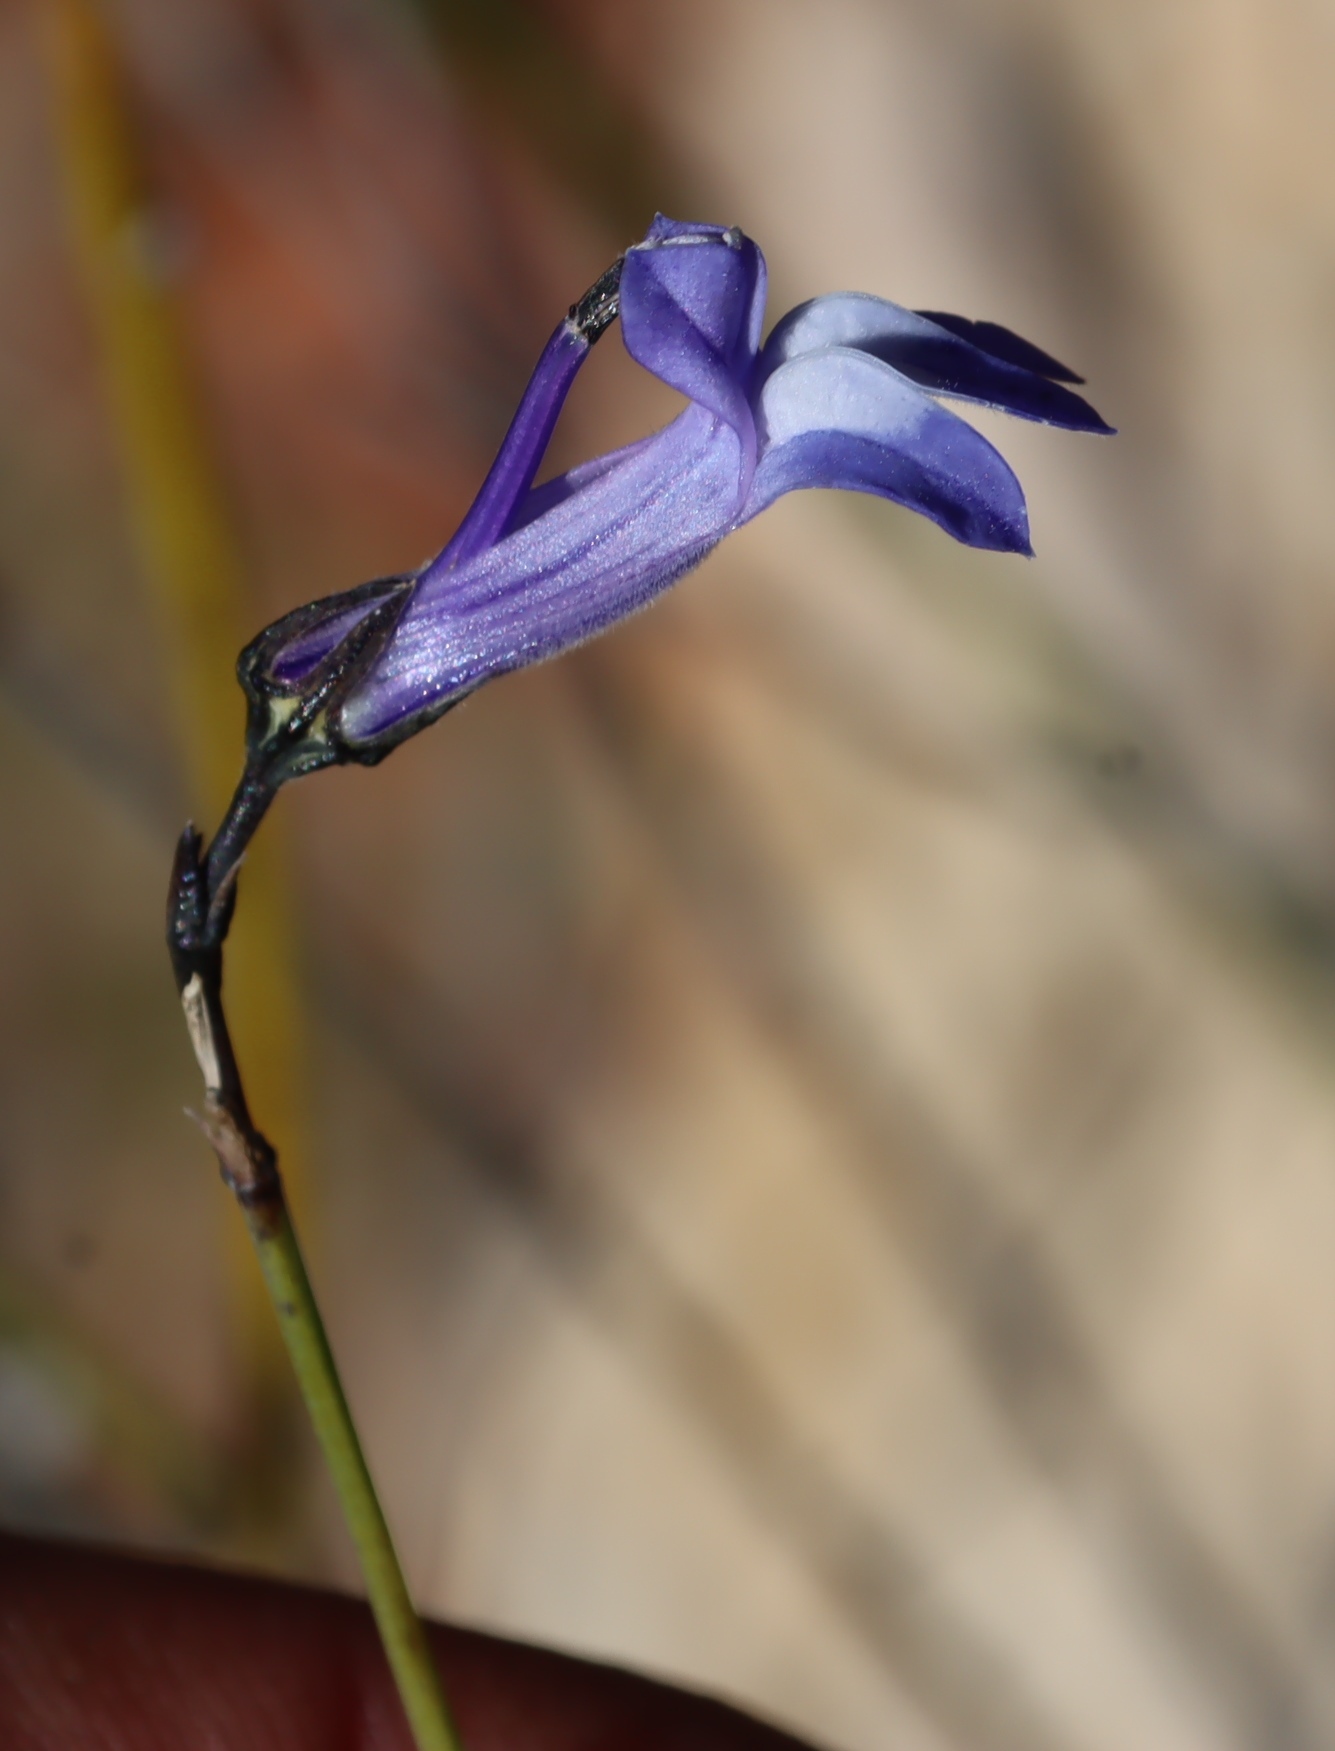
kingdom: Plantae
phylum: Tracheophyta
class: Magnoliopsida
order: Asterales
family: Campanulaceae
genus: Lobelia
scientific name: Lobelia linearis
